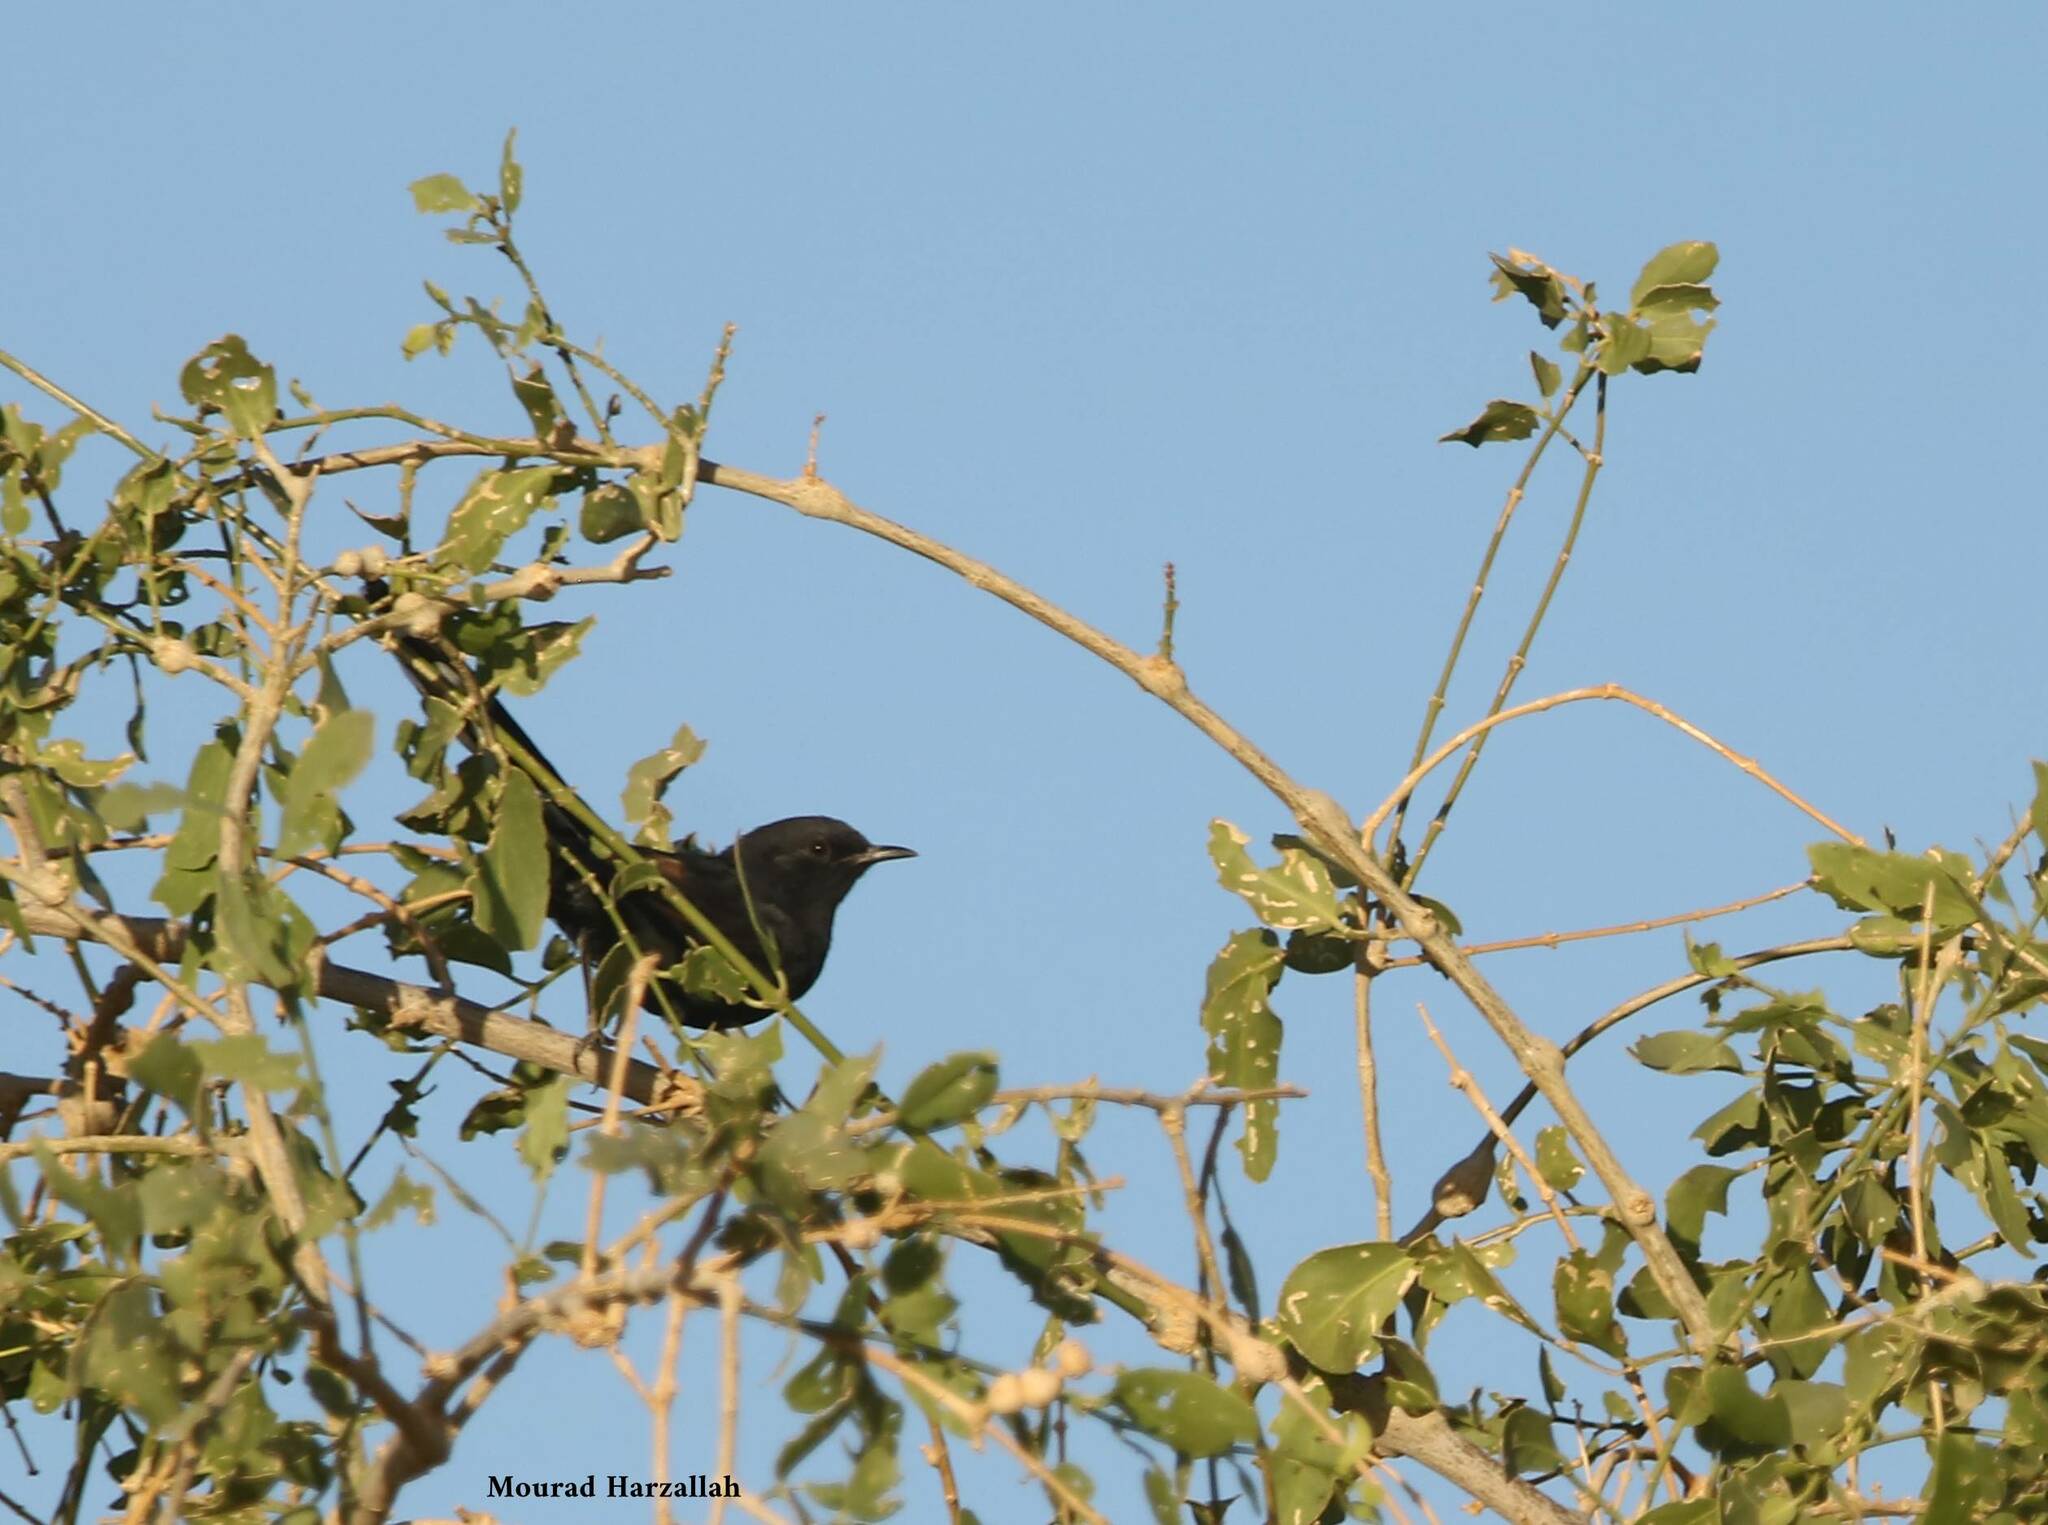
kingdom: Animalia
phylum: Chordata
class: Aves
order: Passeriformes
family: Muscicapidae
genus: Cercotrichas
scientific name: Cercotrichas podobe
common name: Black scrub robin
